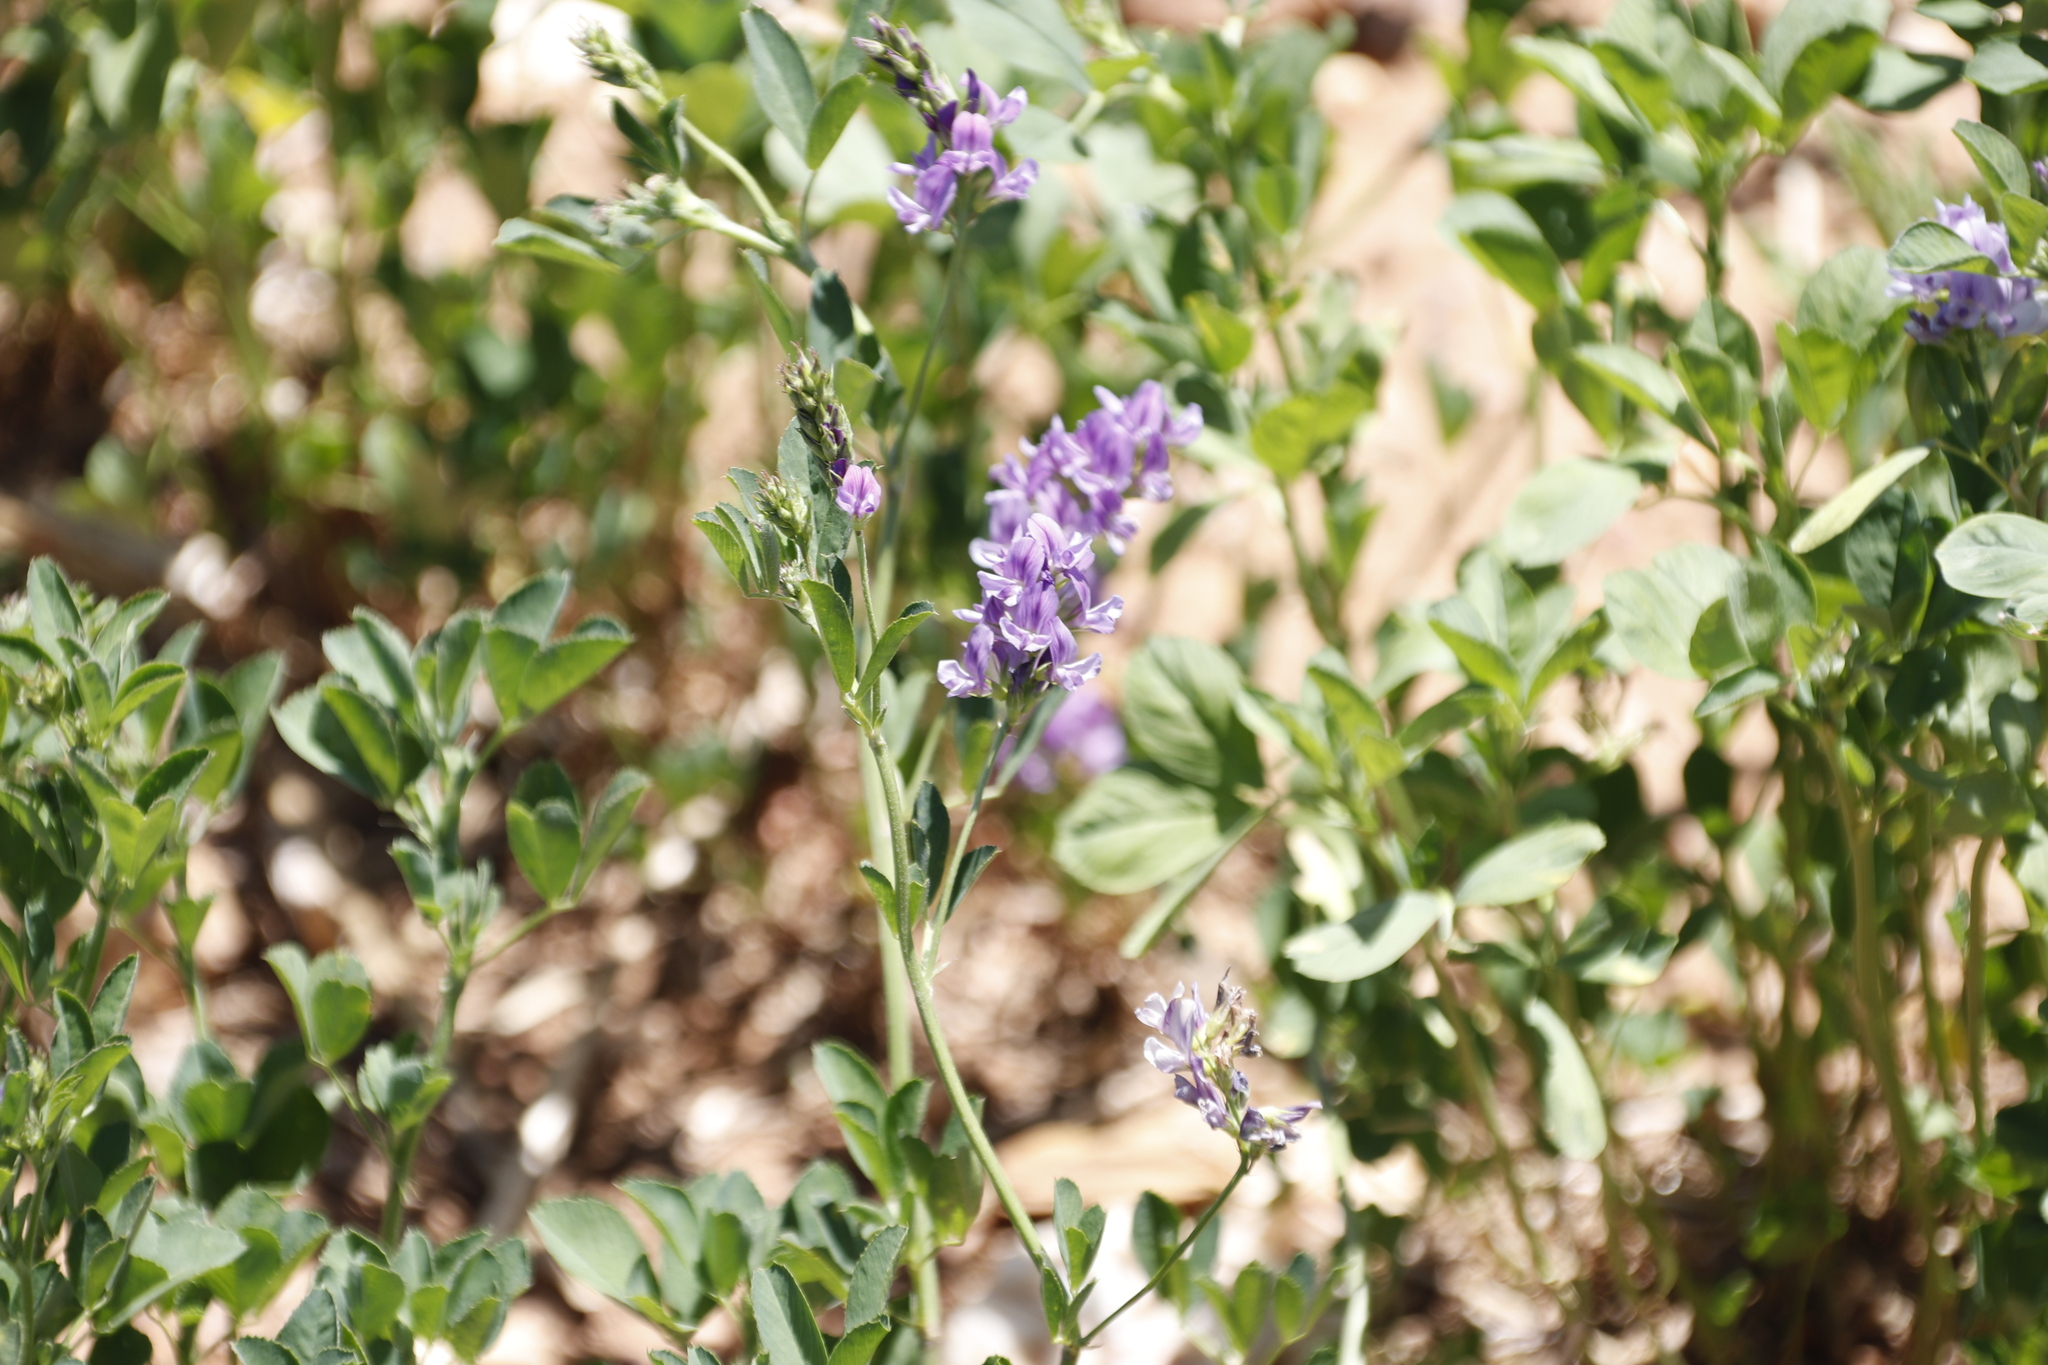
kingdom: Plantae
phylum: Tracheophyta
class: Magnoliopsida
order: Fabales
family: Fabaceae
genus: Medicago
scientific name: Medicago sativa
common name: Alfalfa
